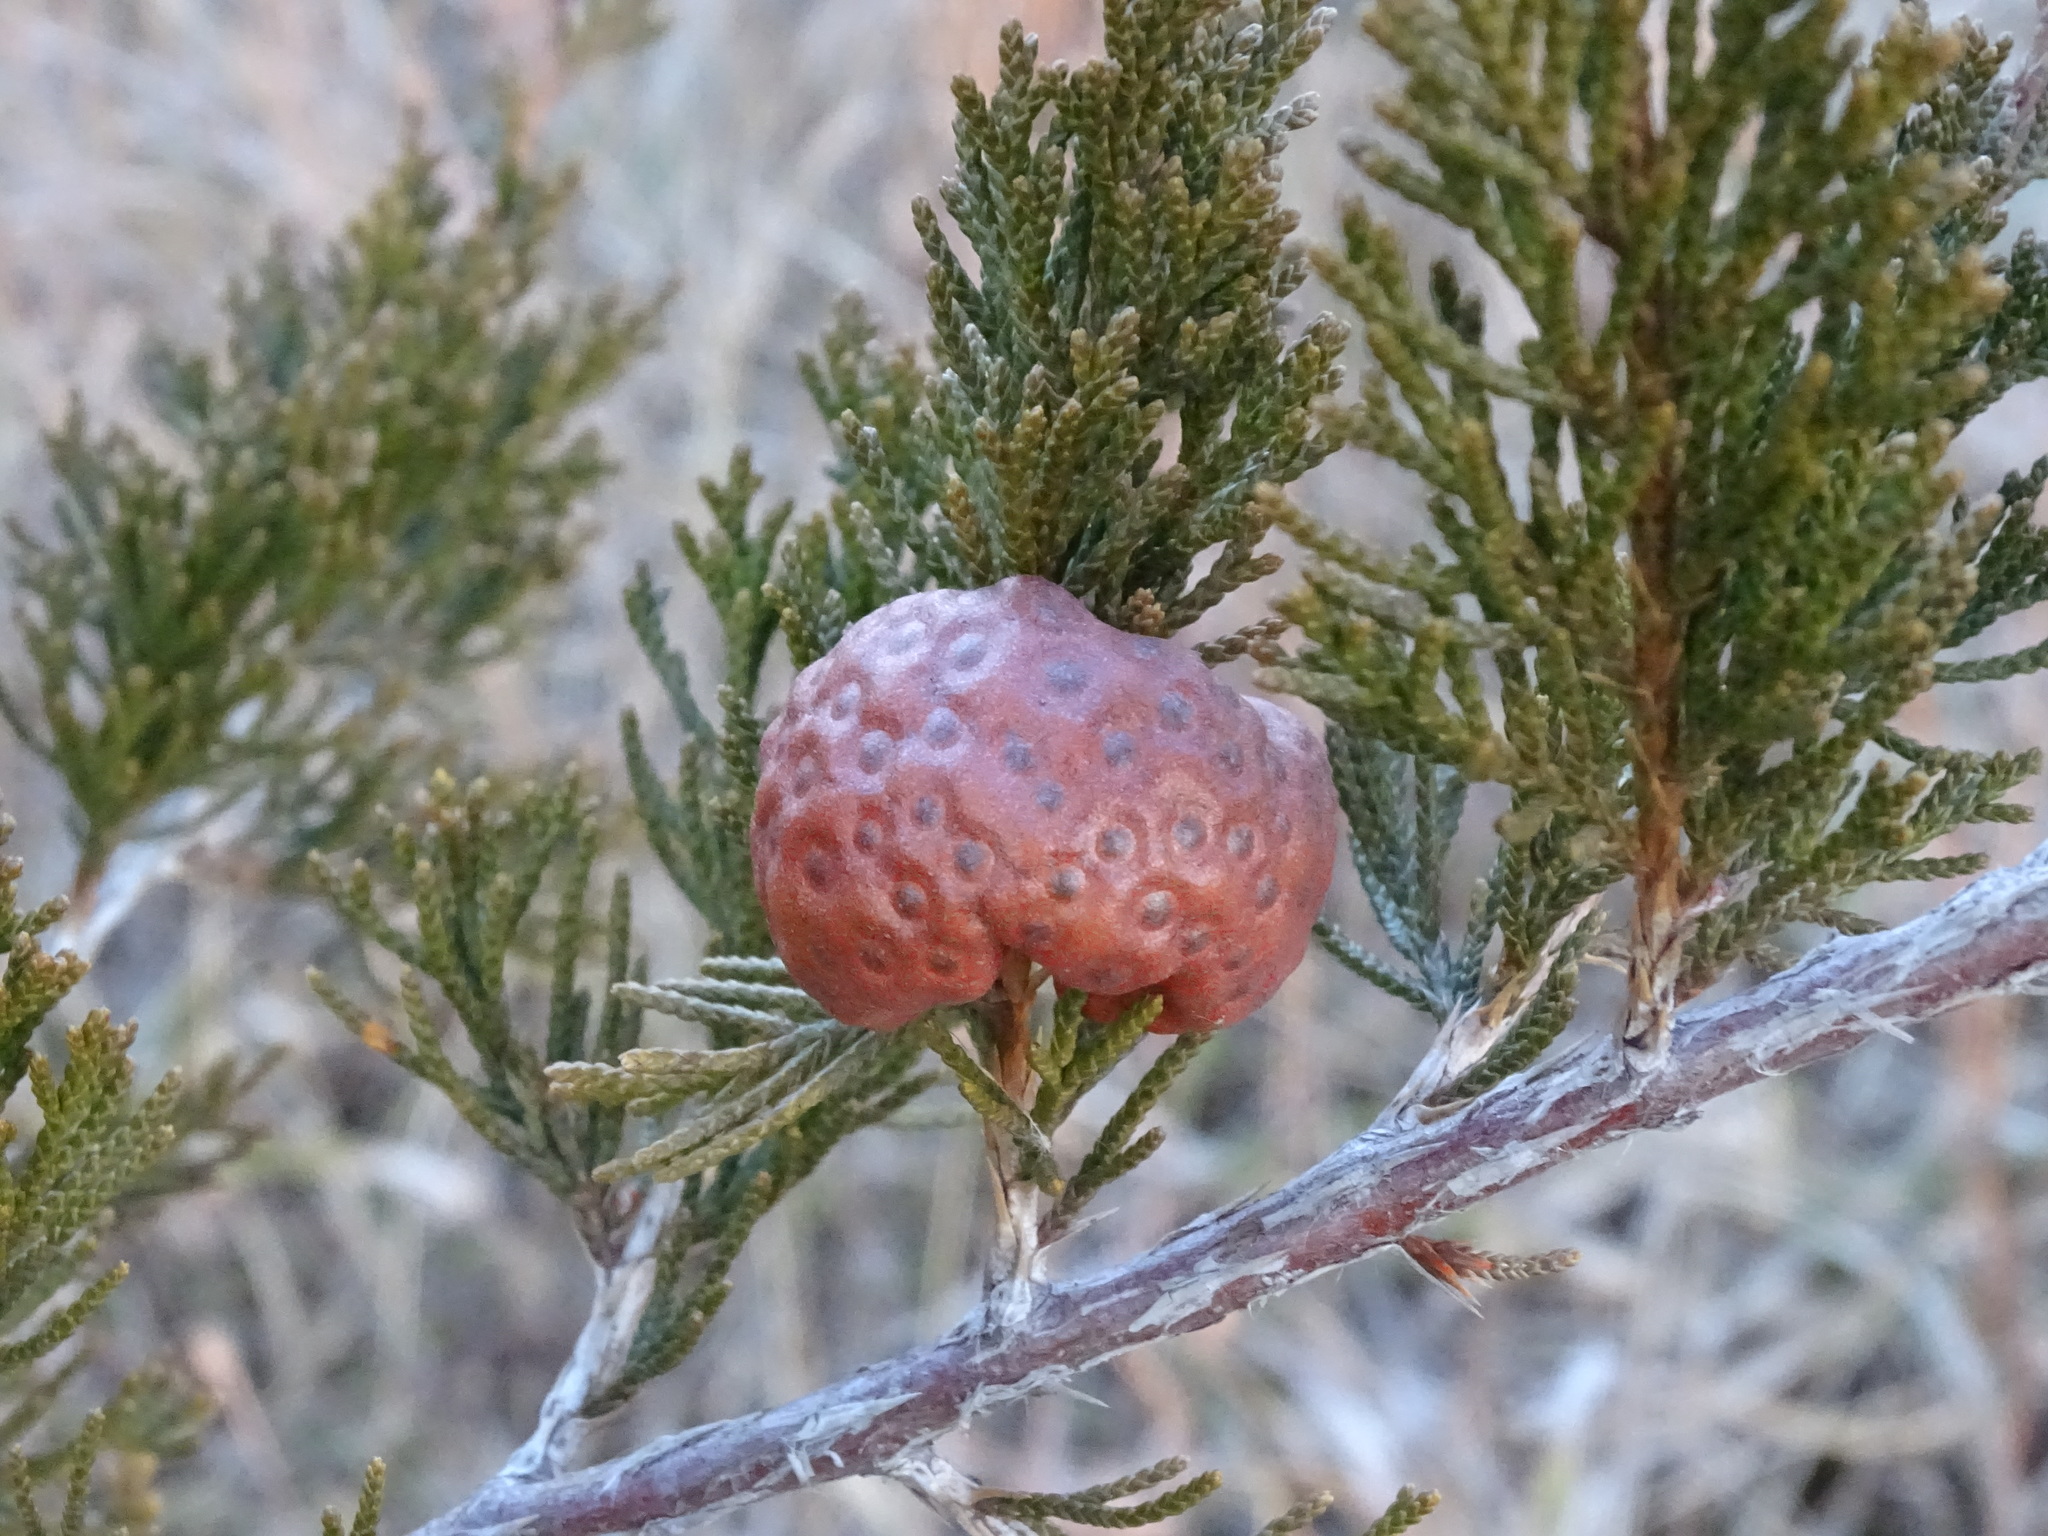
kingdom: Fungi
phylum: Basidiomycota
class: Pucciniomycetes
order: Pucciniales
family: Gymnosporangiaceae
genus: Gymnosporangium
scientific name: Gymnosporangium juniperi-virginianae
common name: Juniper-apple rust
